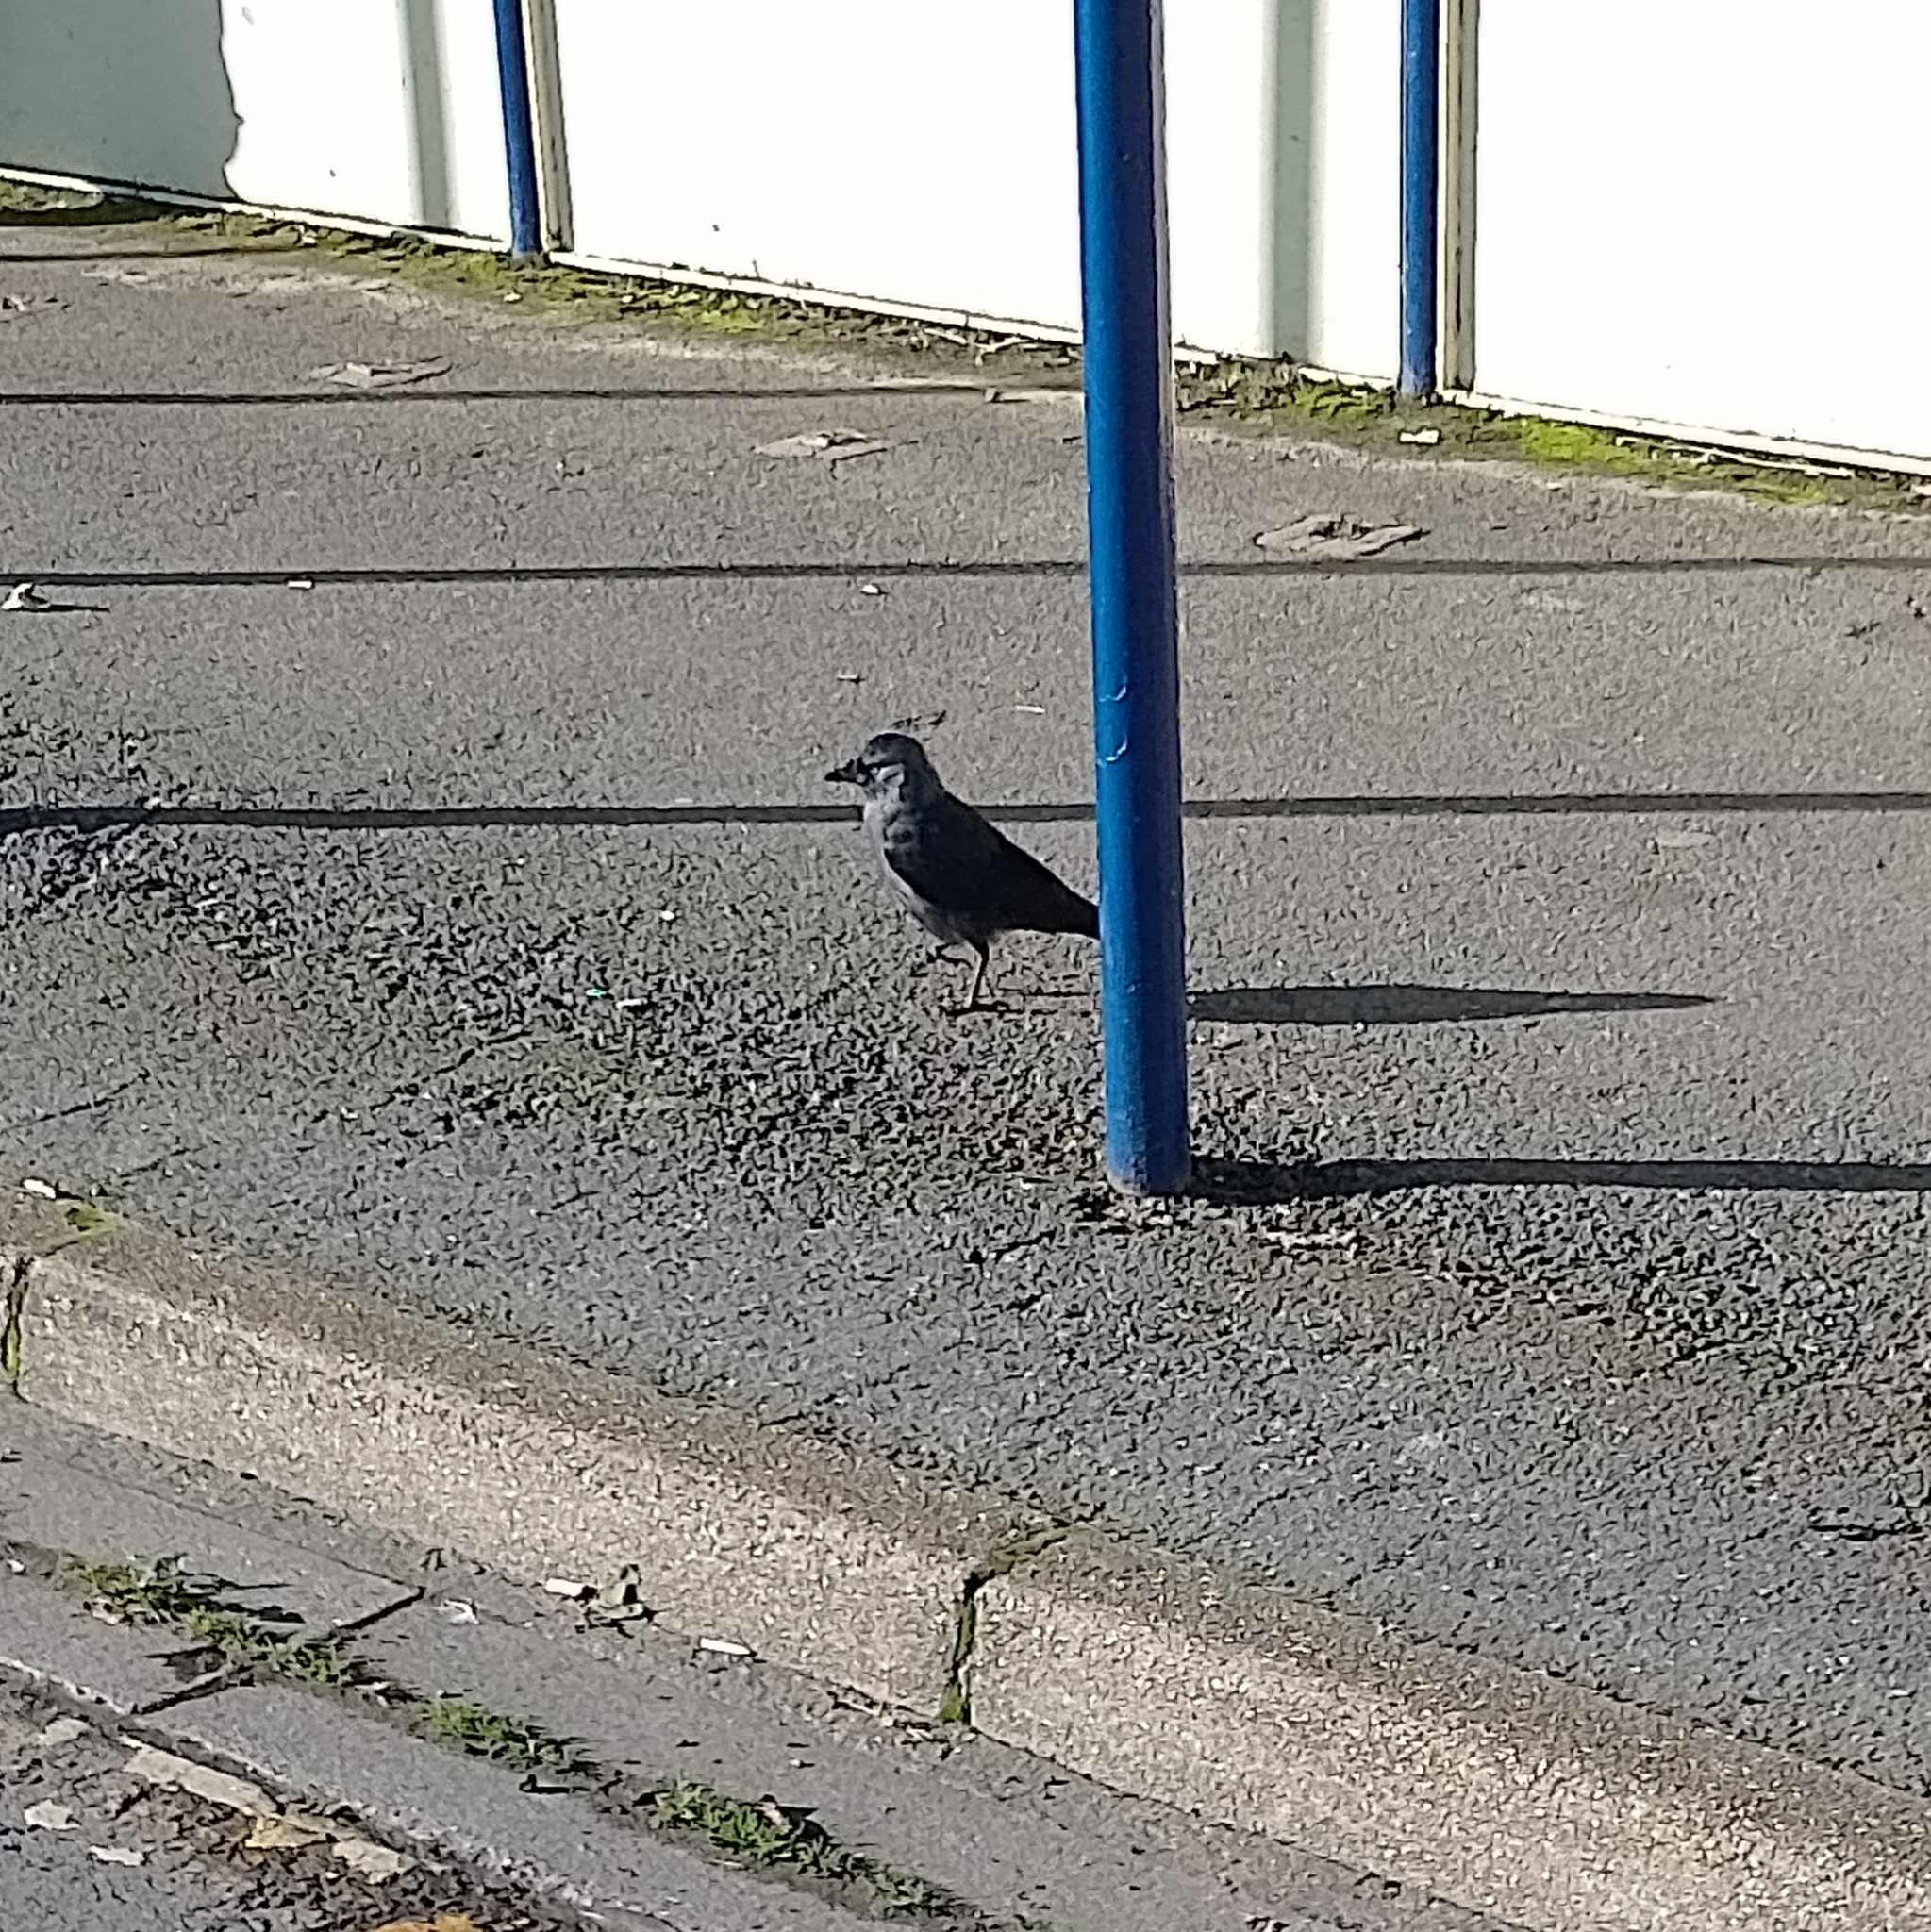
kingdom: Animalia
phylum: Chordata
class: Aves
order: Passeriformes
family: Corvidae
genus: Coloeus
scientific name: Coloeus monedula
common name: Western jackdaw
